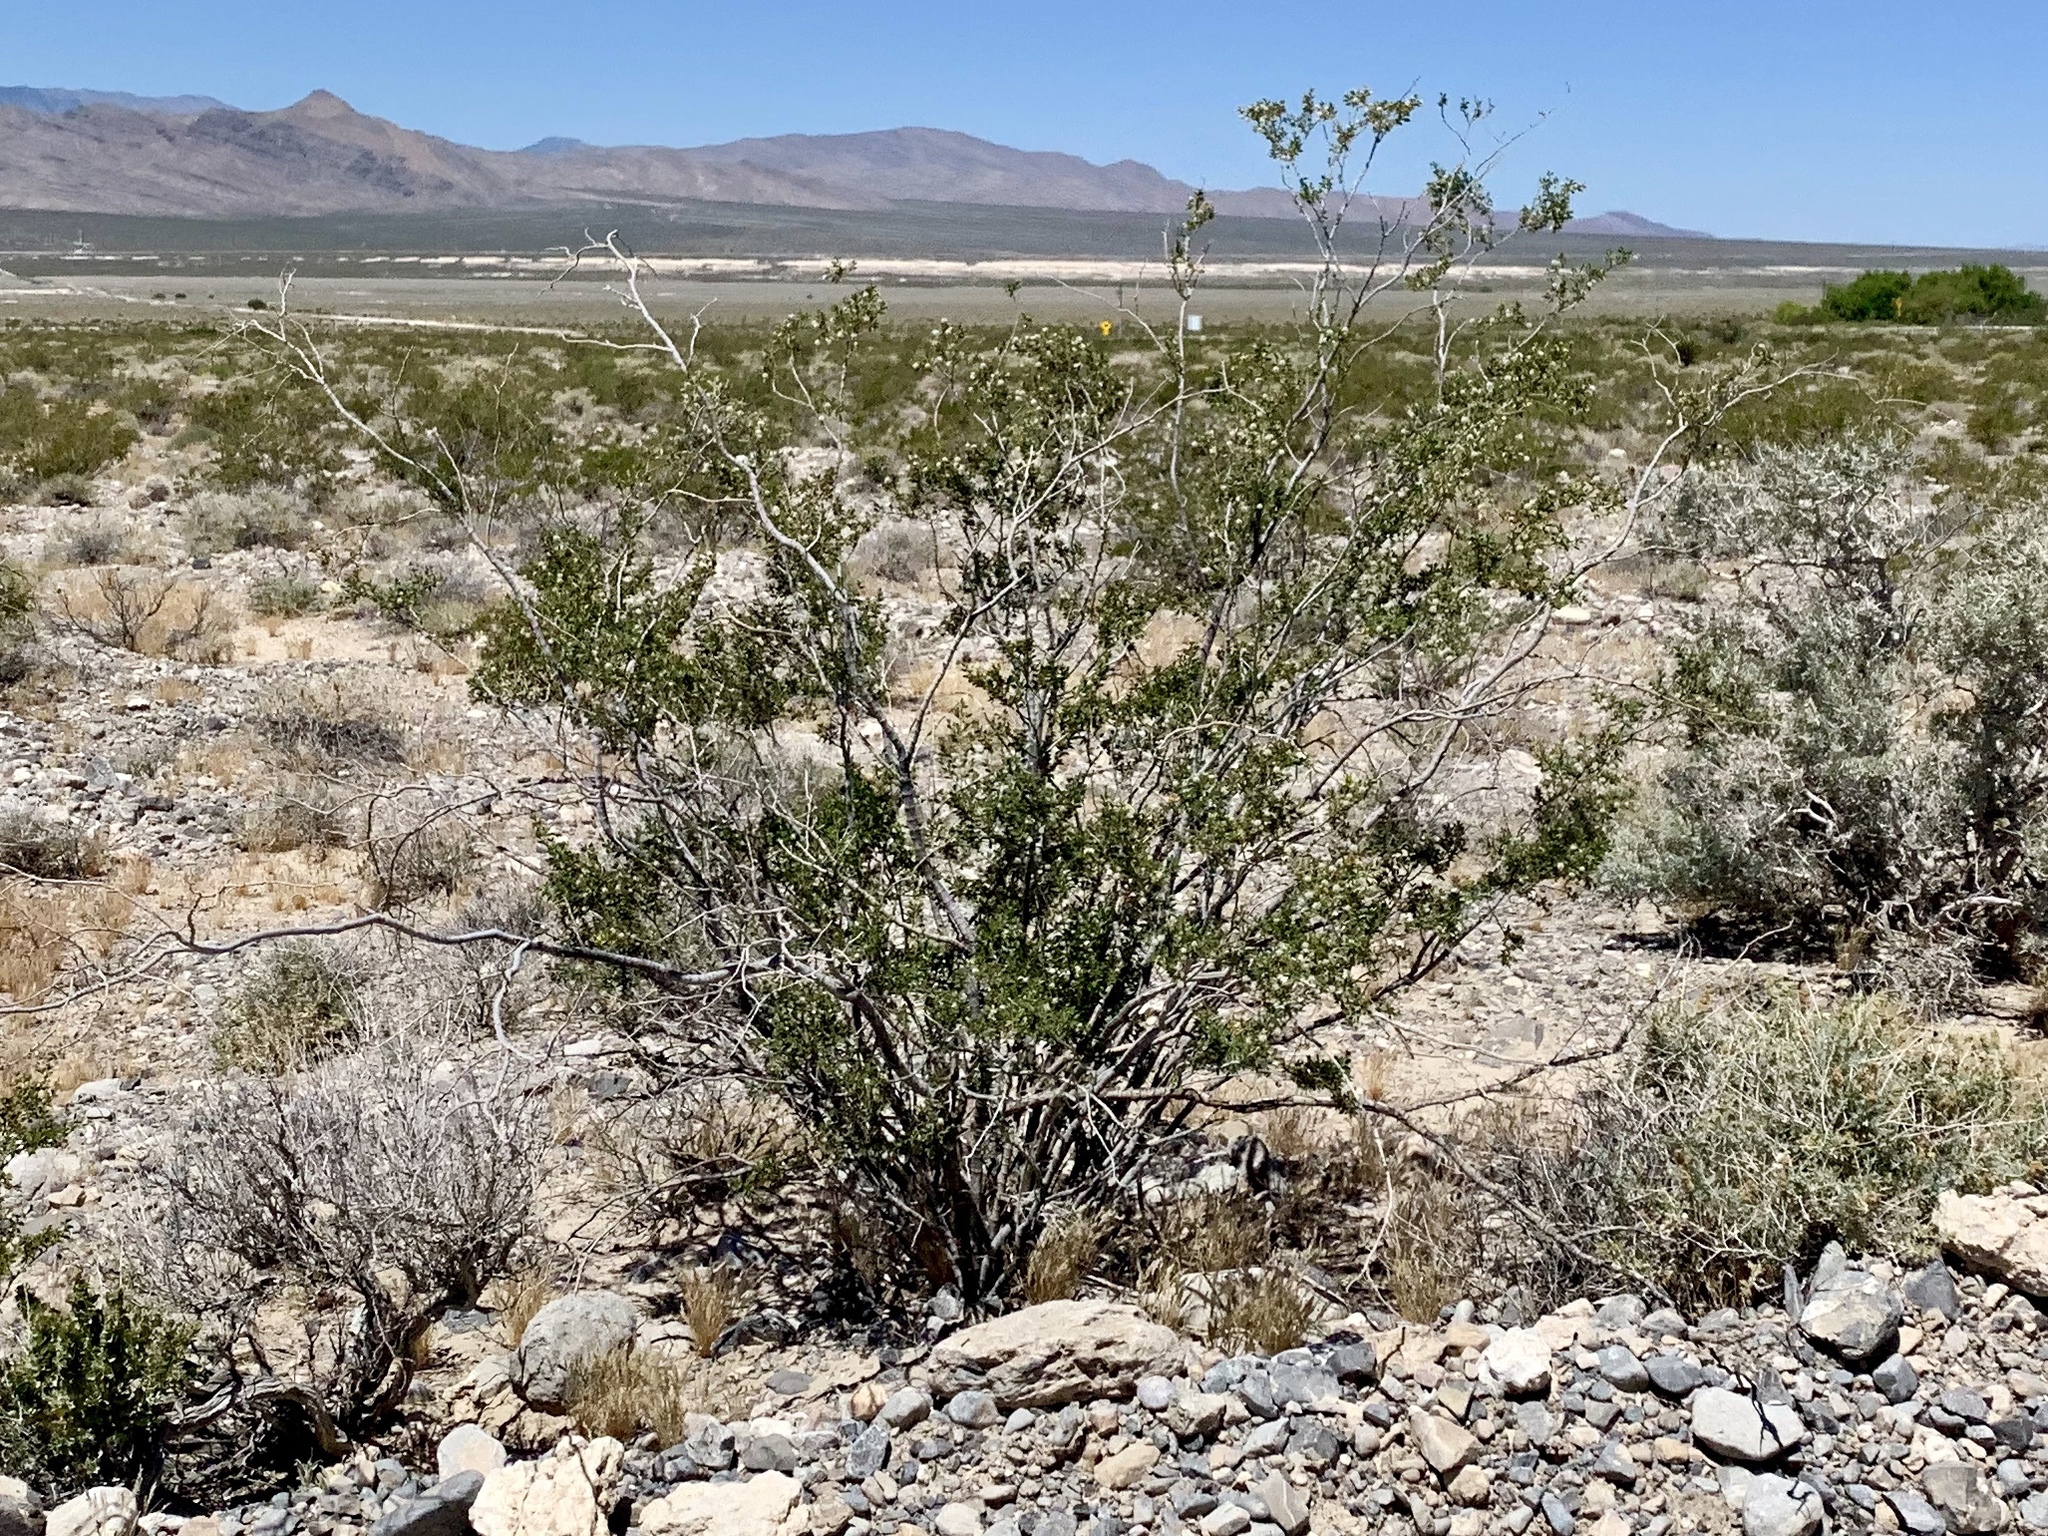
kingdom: Plantae
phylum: Tracheophyta
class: Magnoliopsida
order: Zygophyllales
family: Zygophyllaceae
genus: Larrea
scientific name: Larrea tridentata
